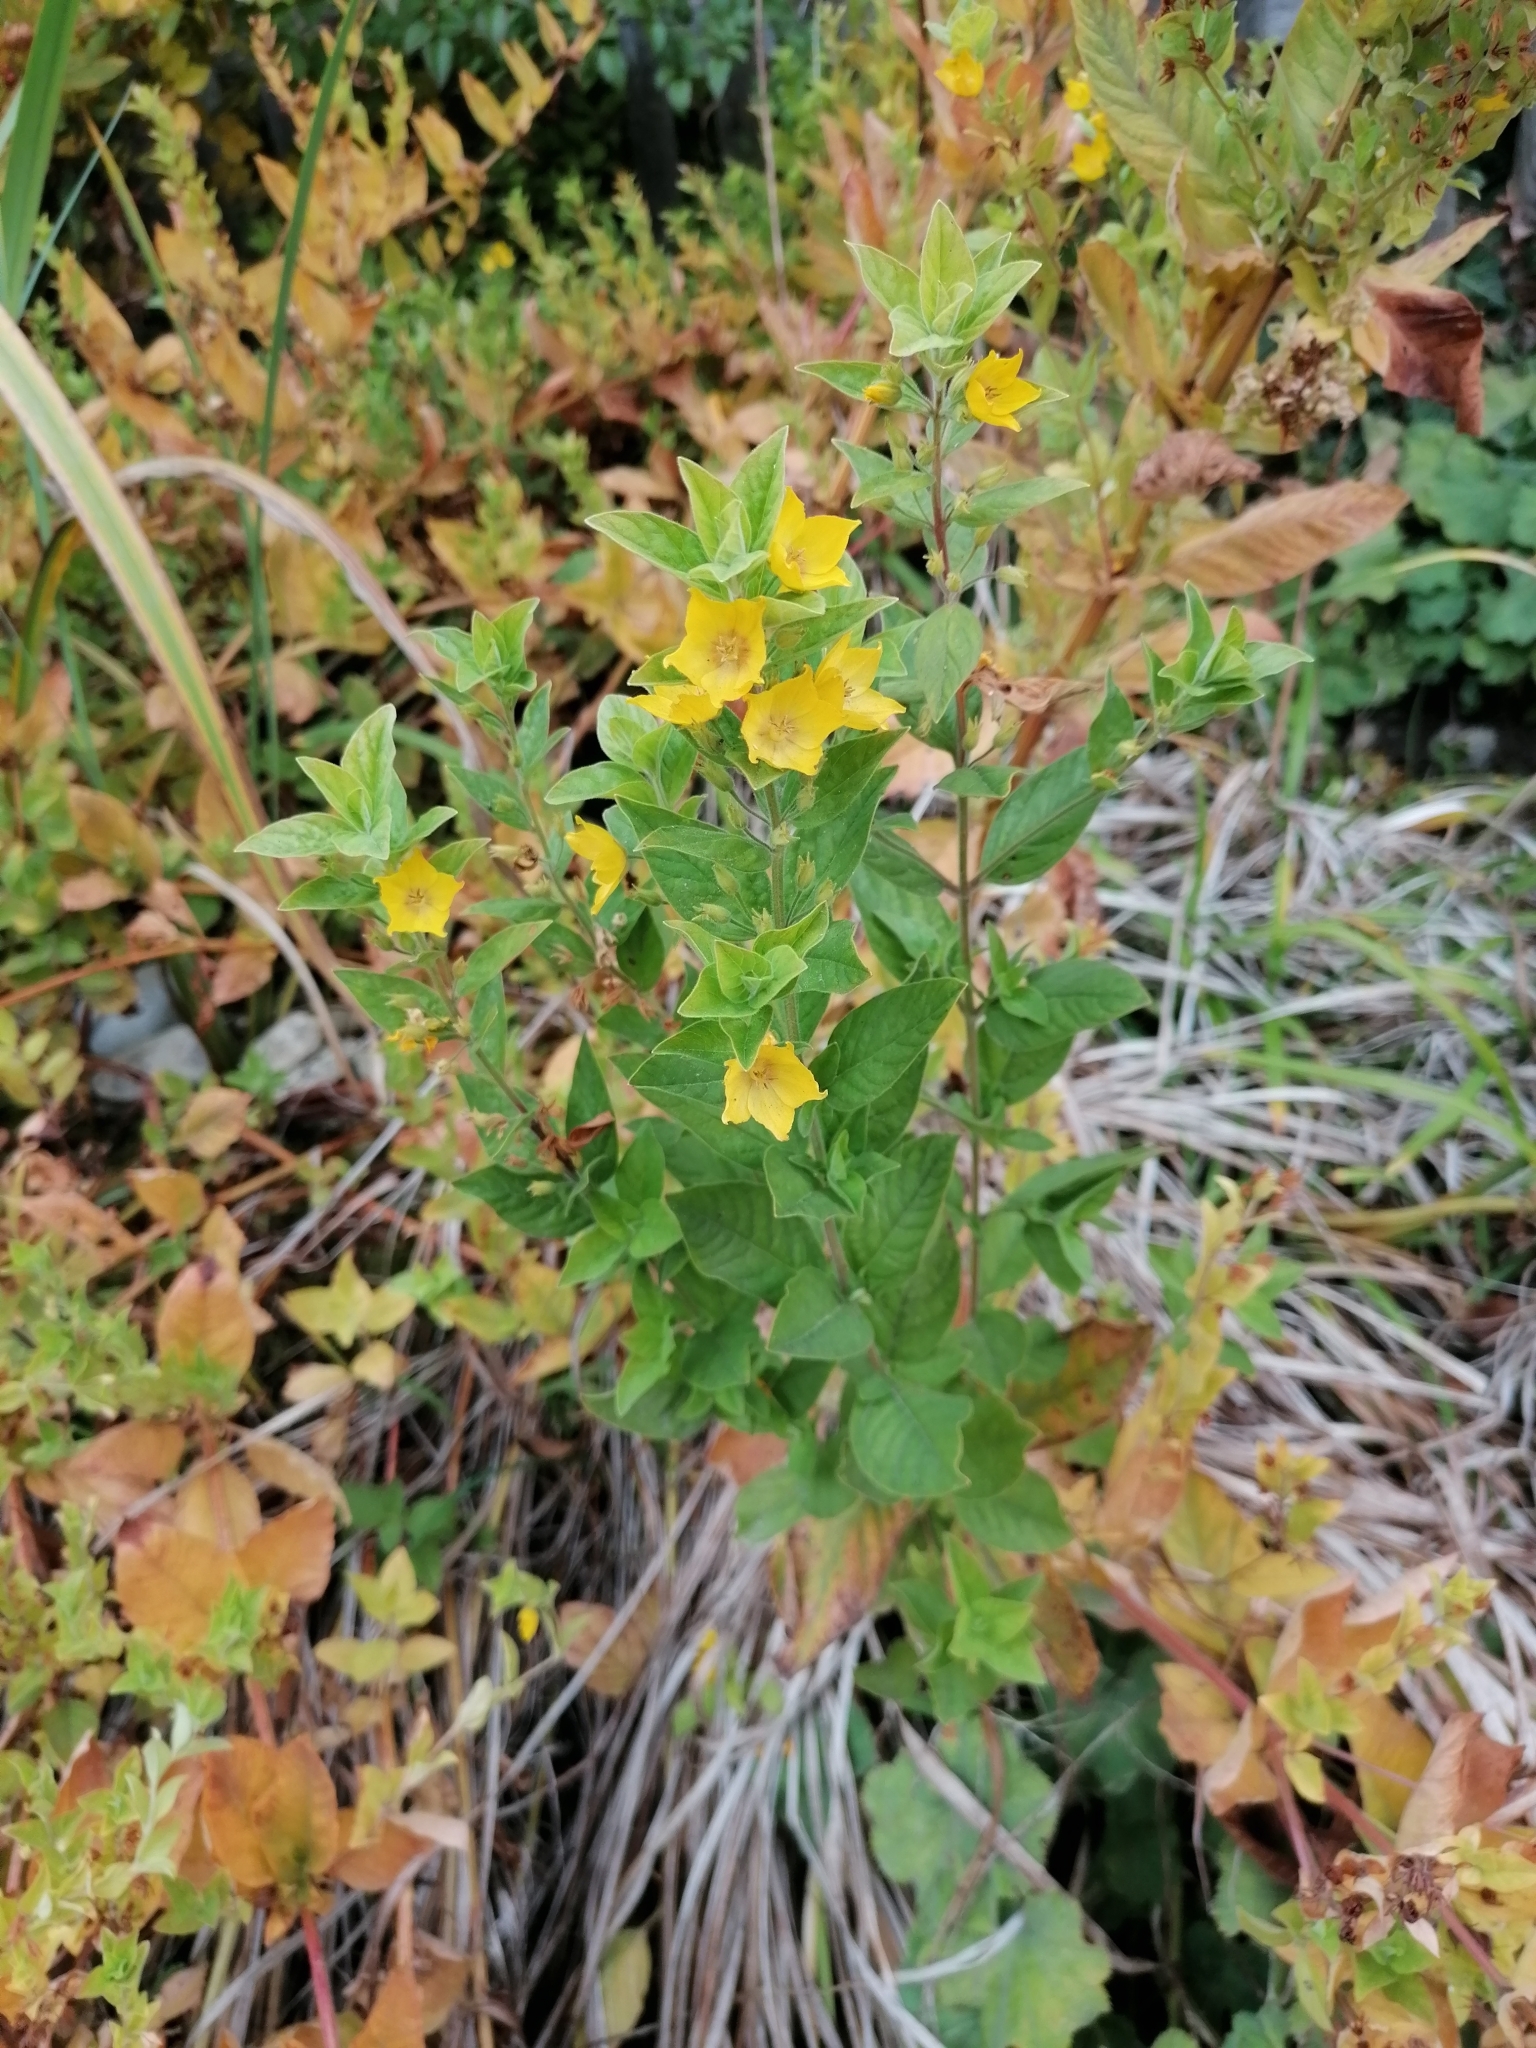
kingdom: Plantae
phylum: Tracheophyta
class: Magnoliopsida
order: Ericales
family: Primulaceae
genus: Lysimachia
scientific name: Lysimachia punctata
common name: Dotted loosestrife
